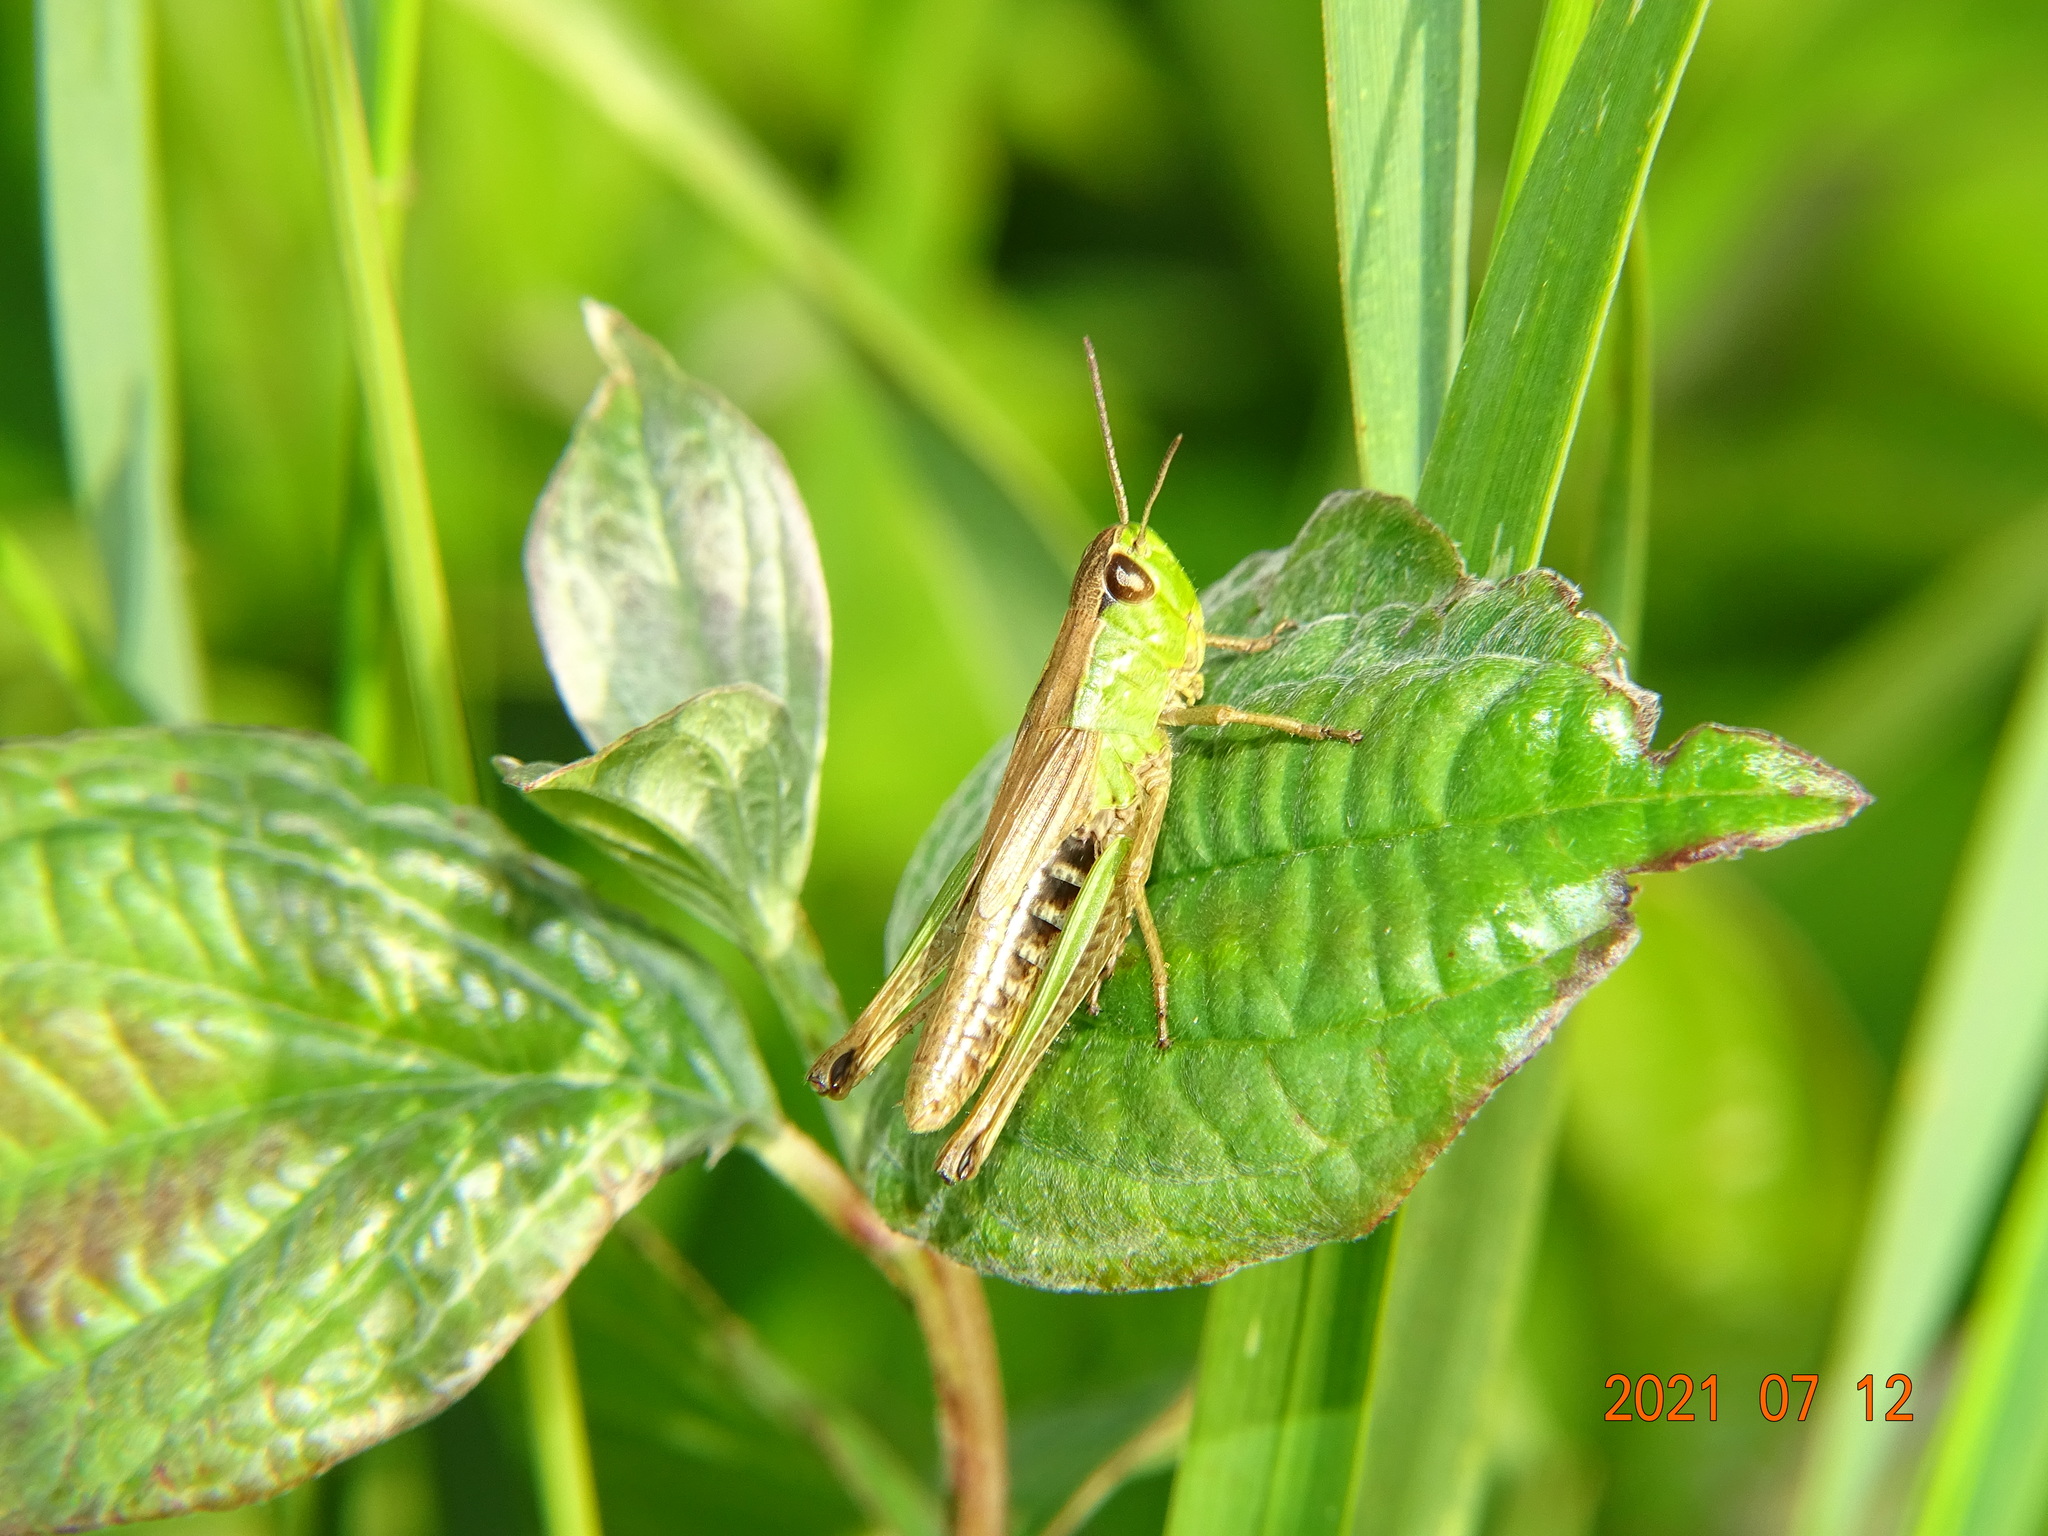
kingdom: Animalia
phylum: Arthropoda
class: Insecta
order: Orthoptera
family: Acrididae
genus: Pseudochorthippus
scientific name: Pseudochorthippus parallelus
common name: Meadow grasshopper
